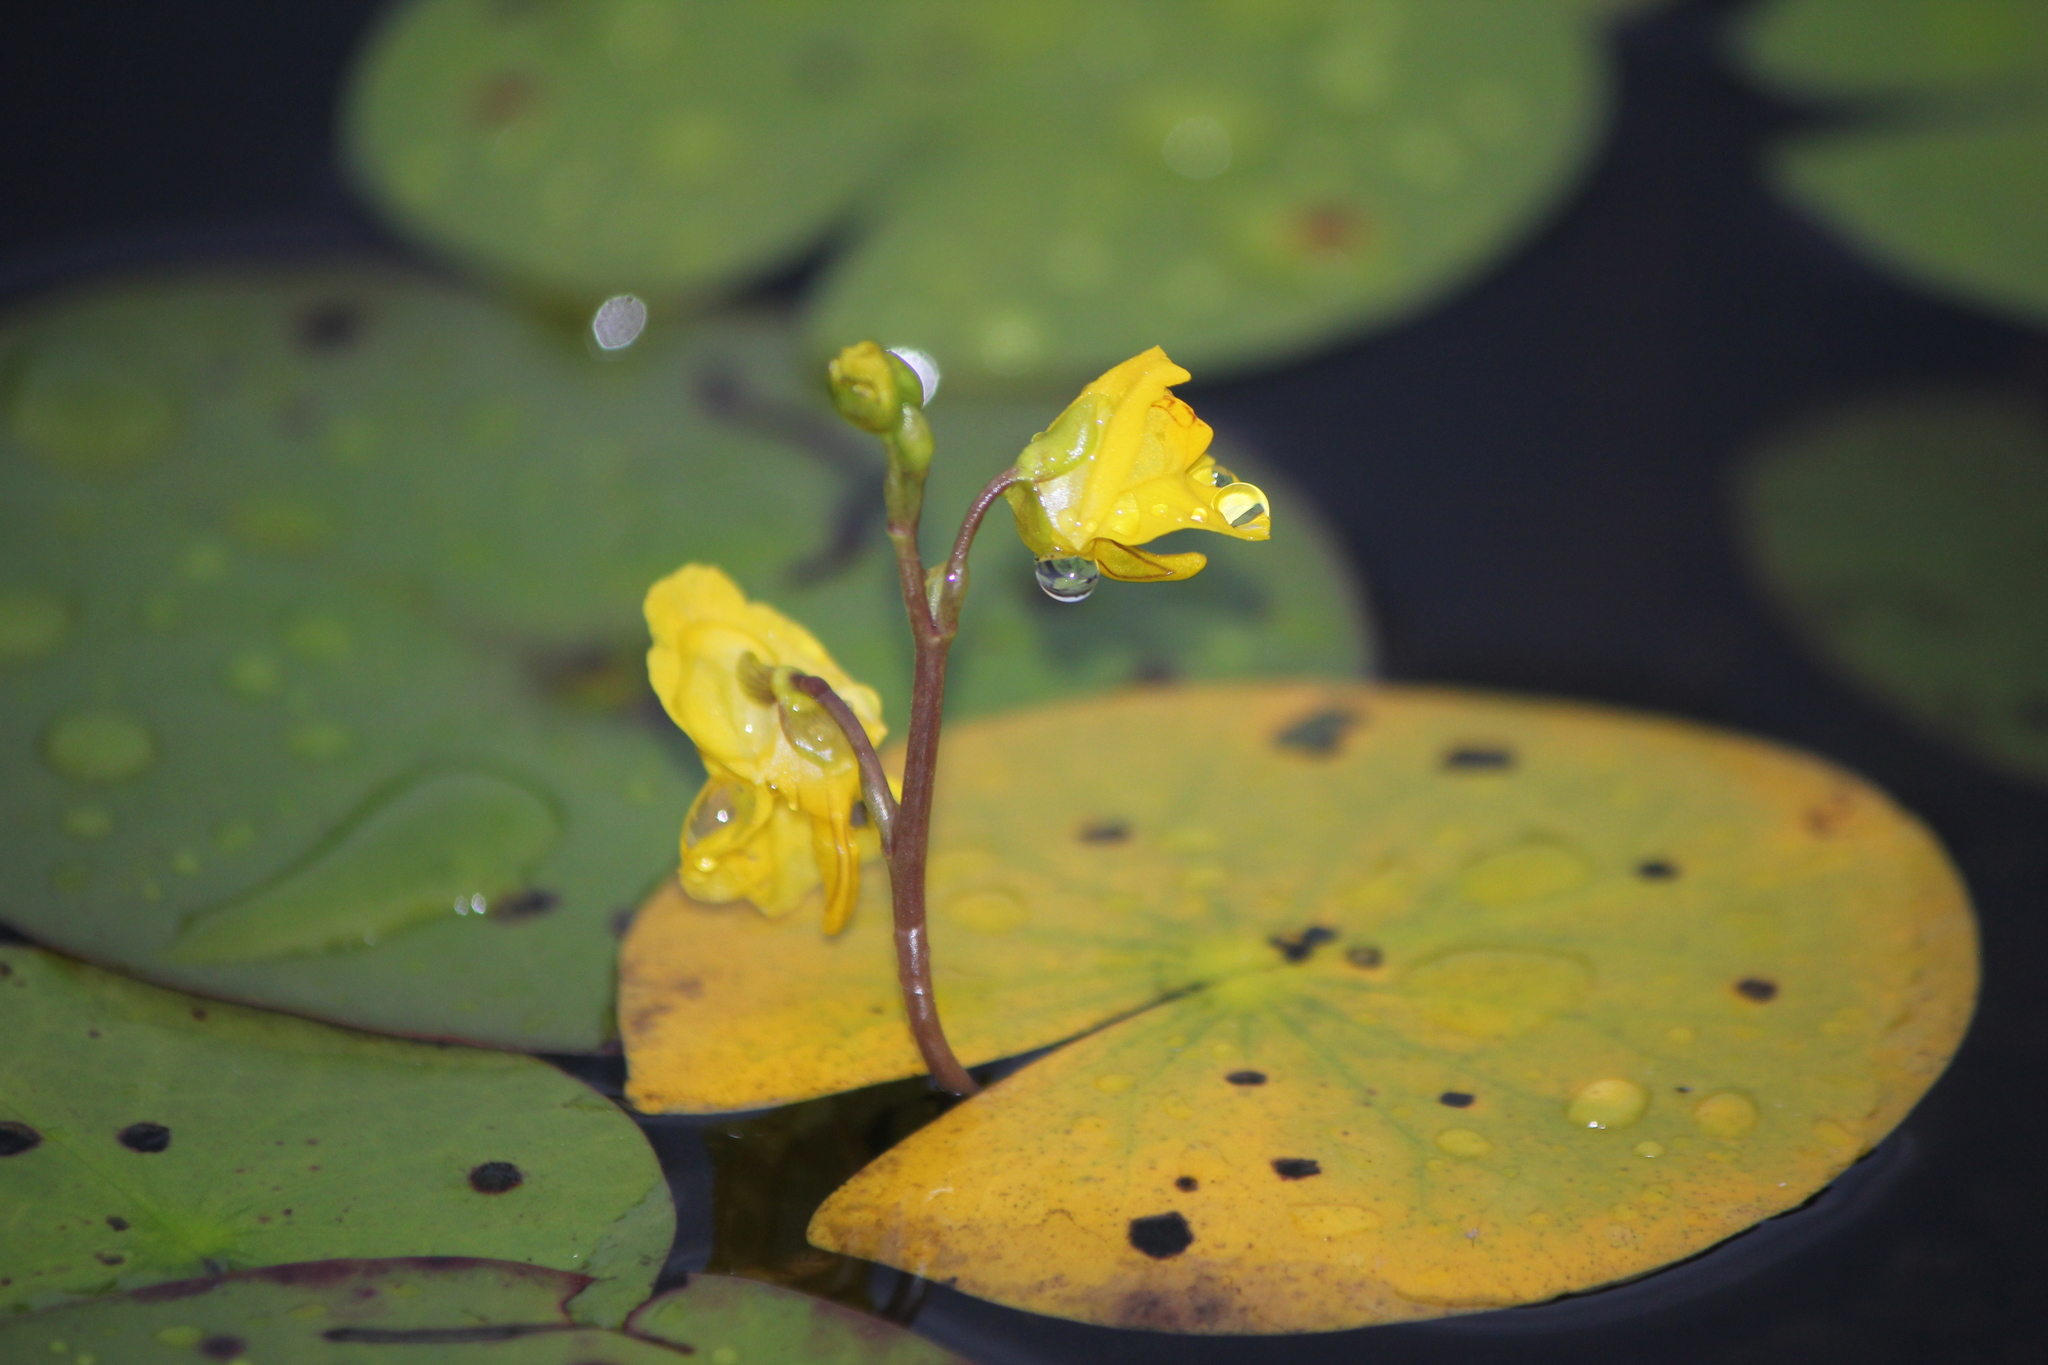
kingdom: Plantae
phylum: Tracheophyta
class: Magnoliopsida
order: Lamiales
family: Lentibulariaceae
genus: Utricularia
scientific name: Utricularia macrorhiza
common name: Common bladderwort
